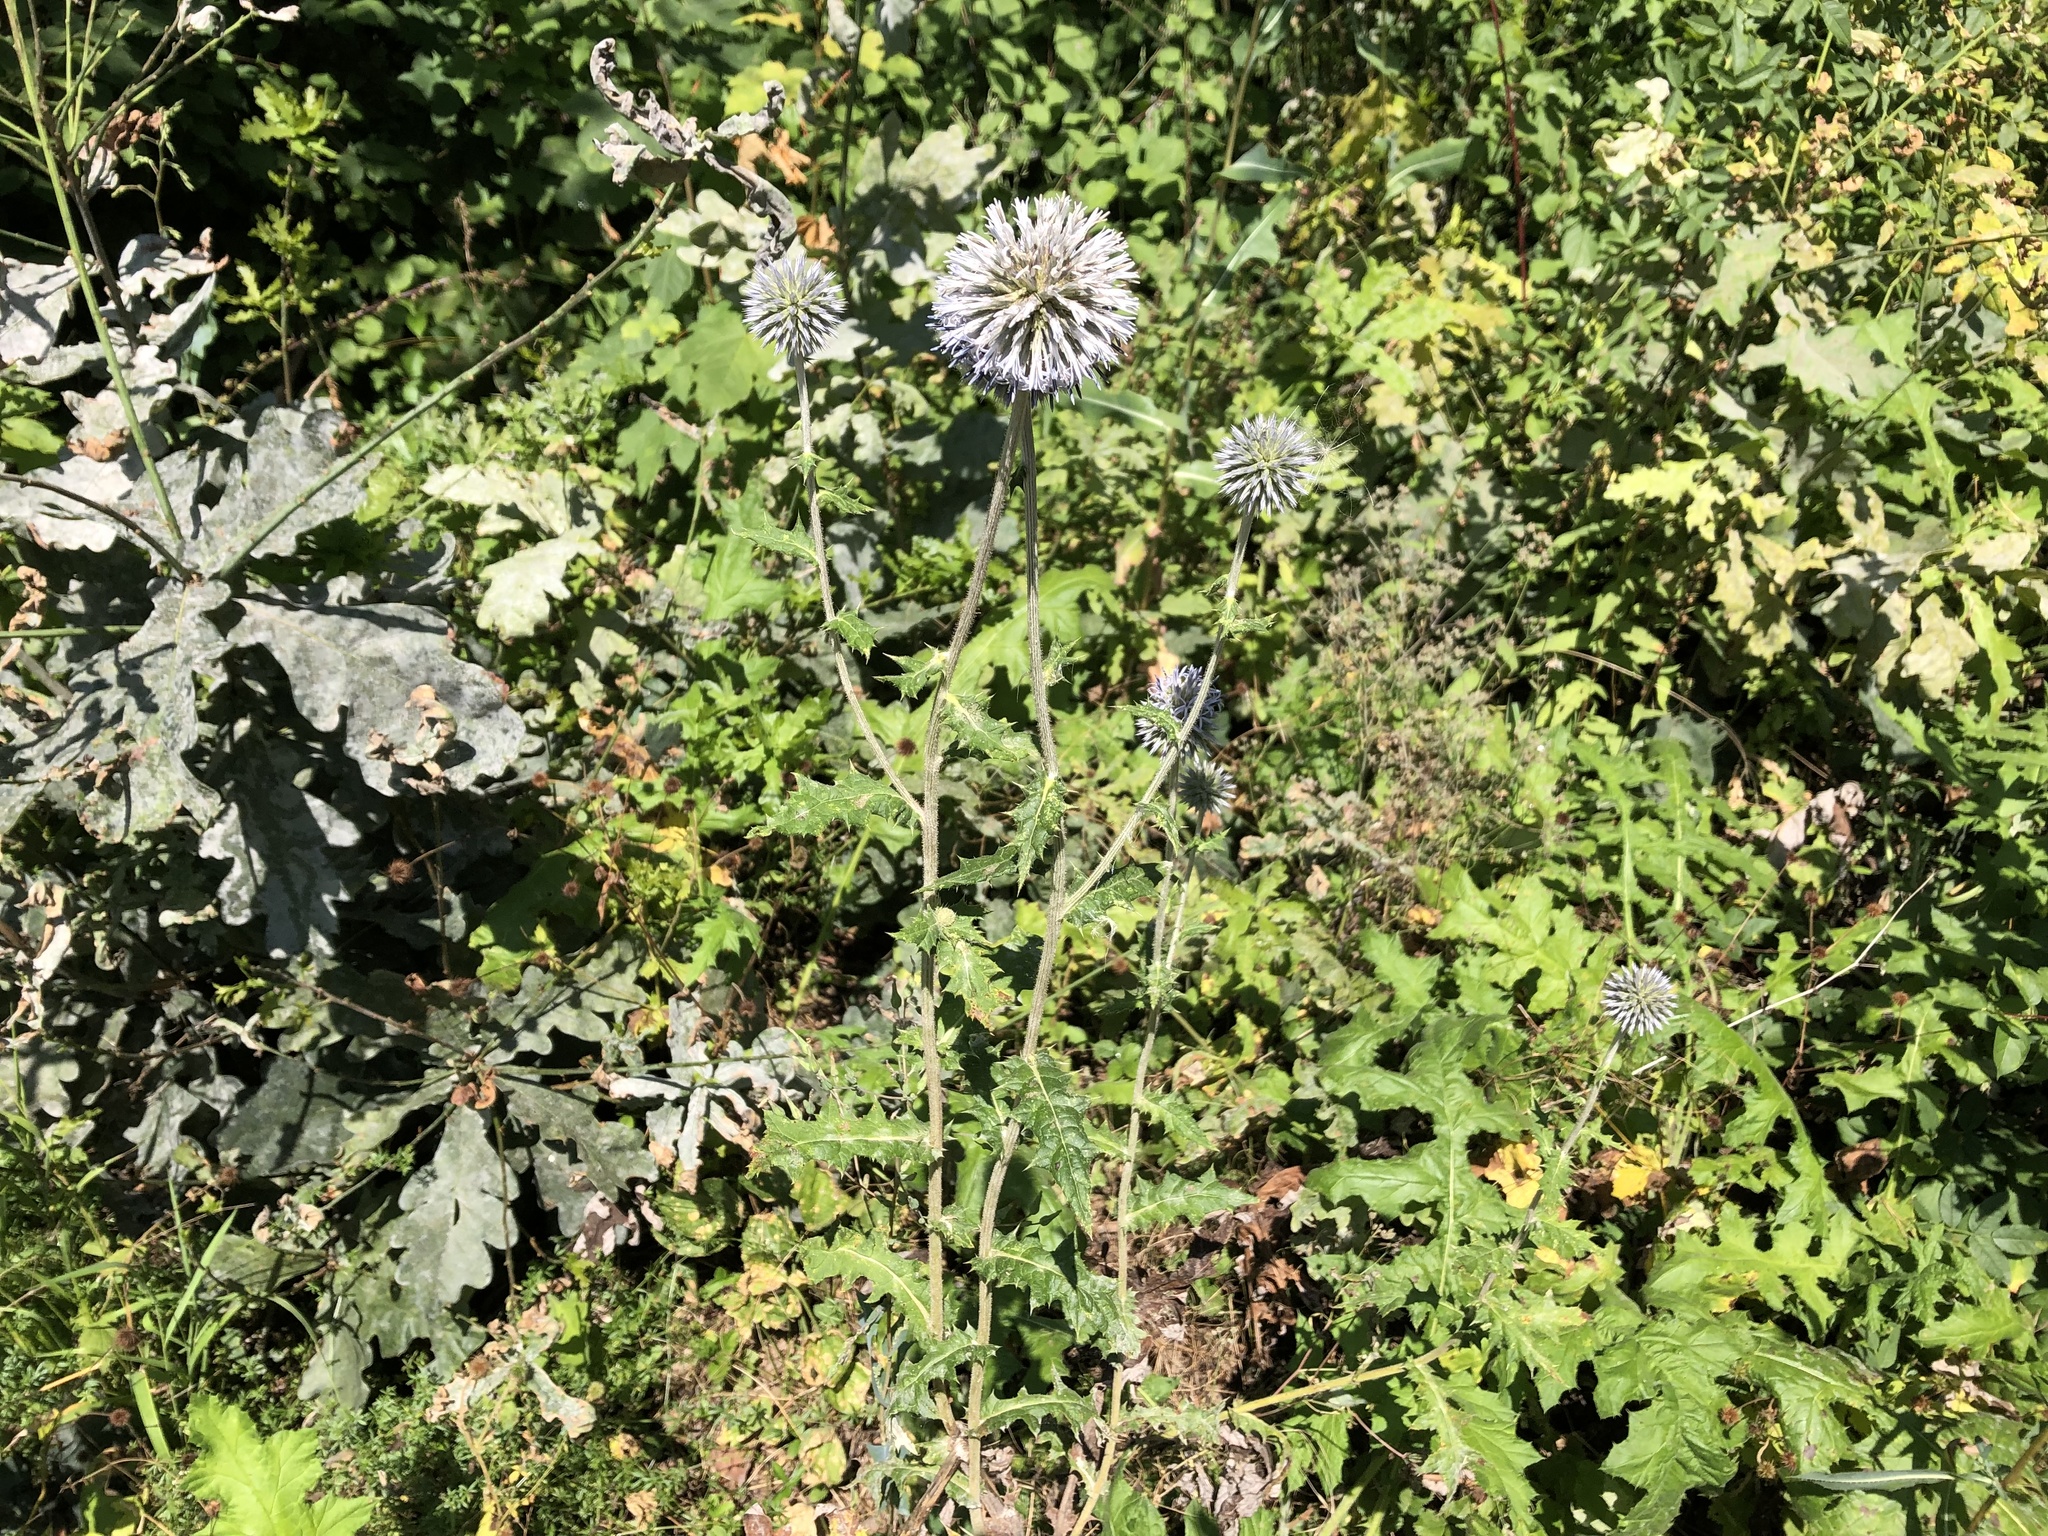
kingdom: Plantae
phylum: Tracheophyta
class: Magnoliopsida
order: Asterales
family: Asteraceae
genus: Echinops
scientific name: Echinops sphaerocephalus
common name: Glandular globe-thistle
